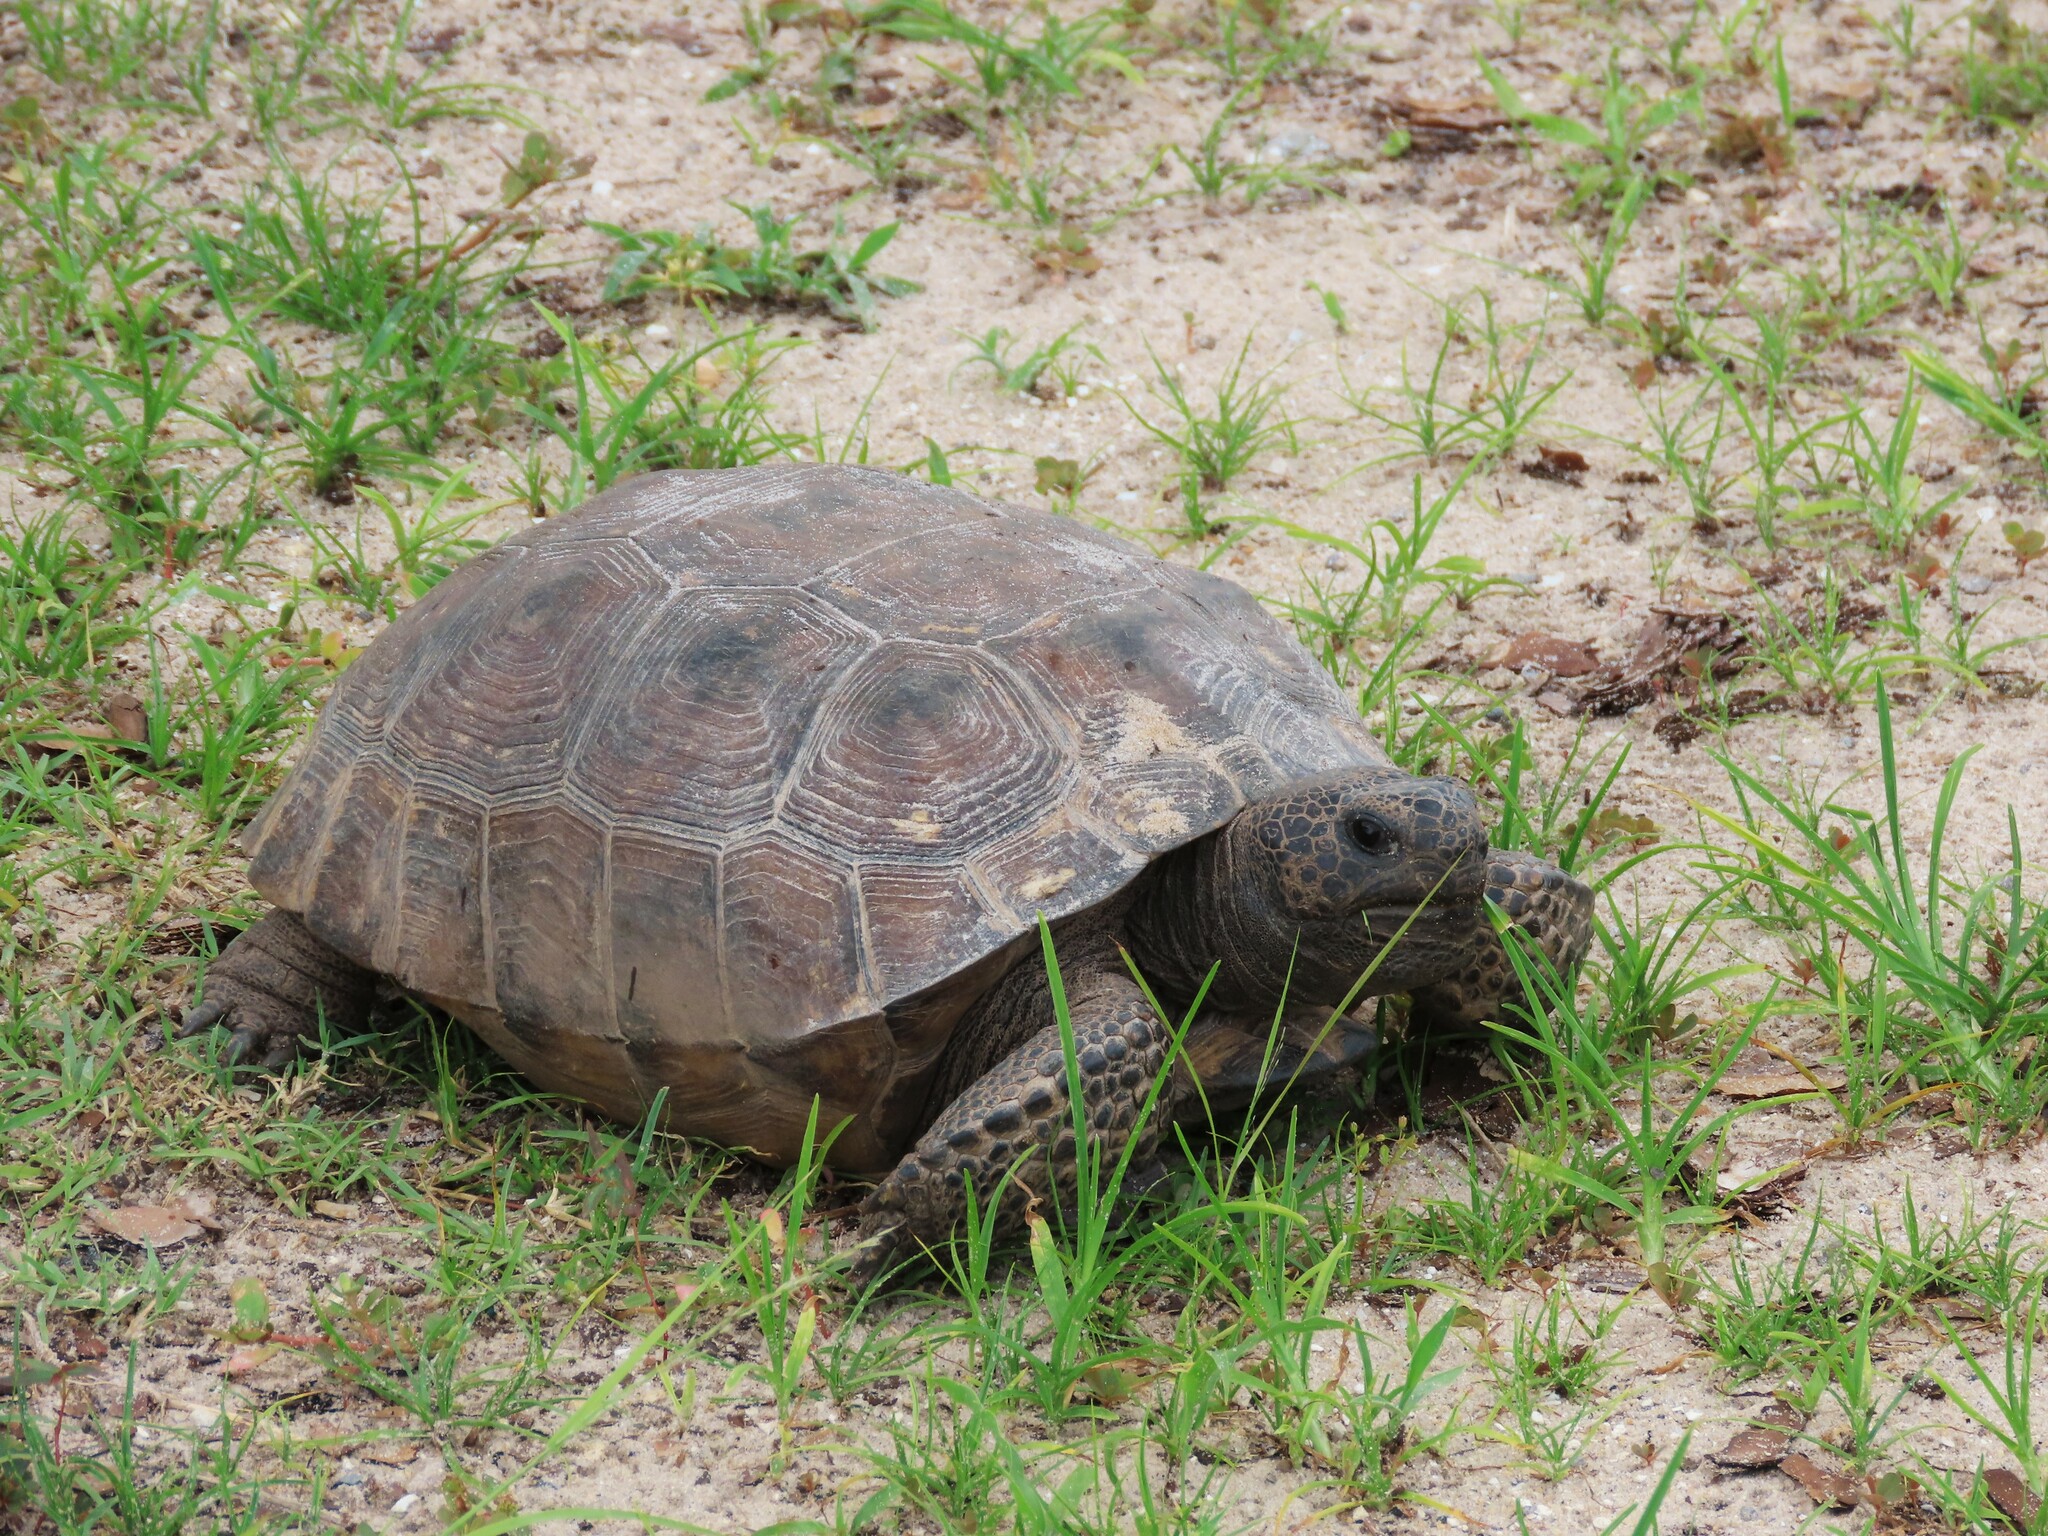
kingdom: Animalia
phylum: Chordata
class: Testudines
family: Testudinidae
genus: Gopherus
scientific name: Gopherus polyphemus
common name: Florida gopher tortoise
